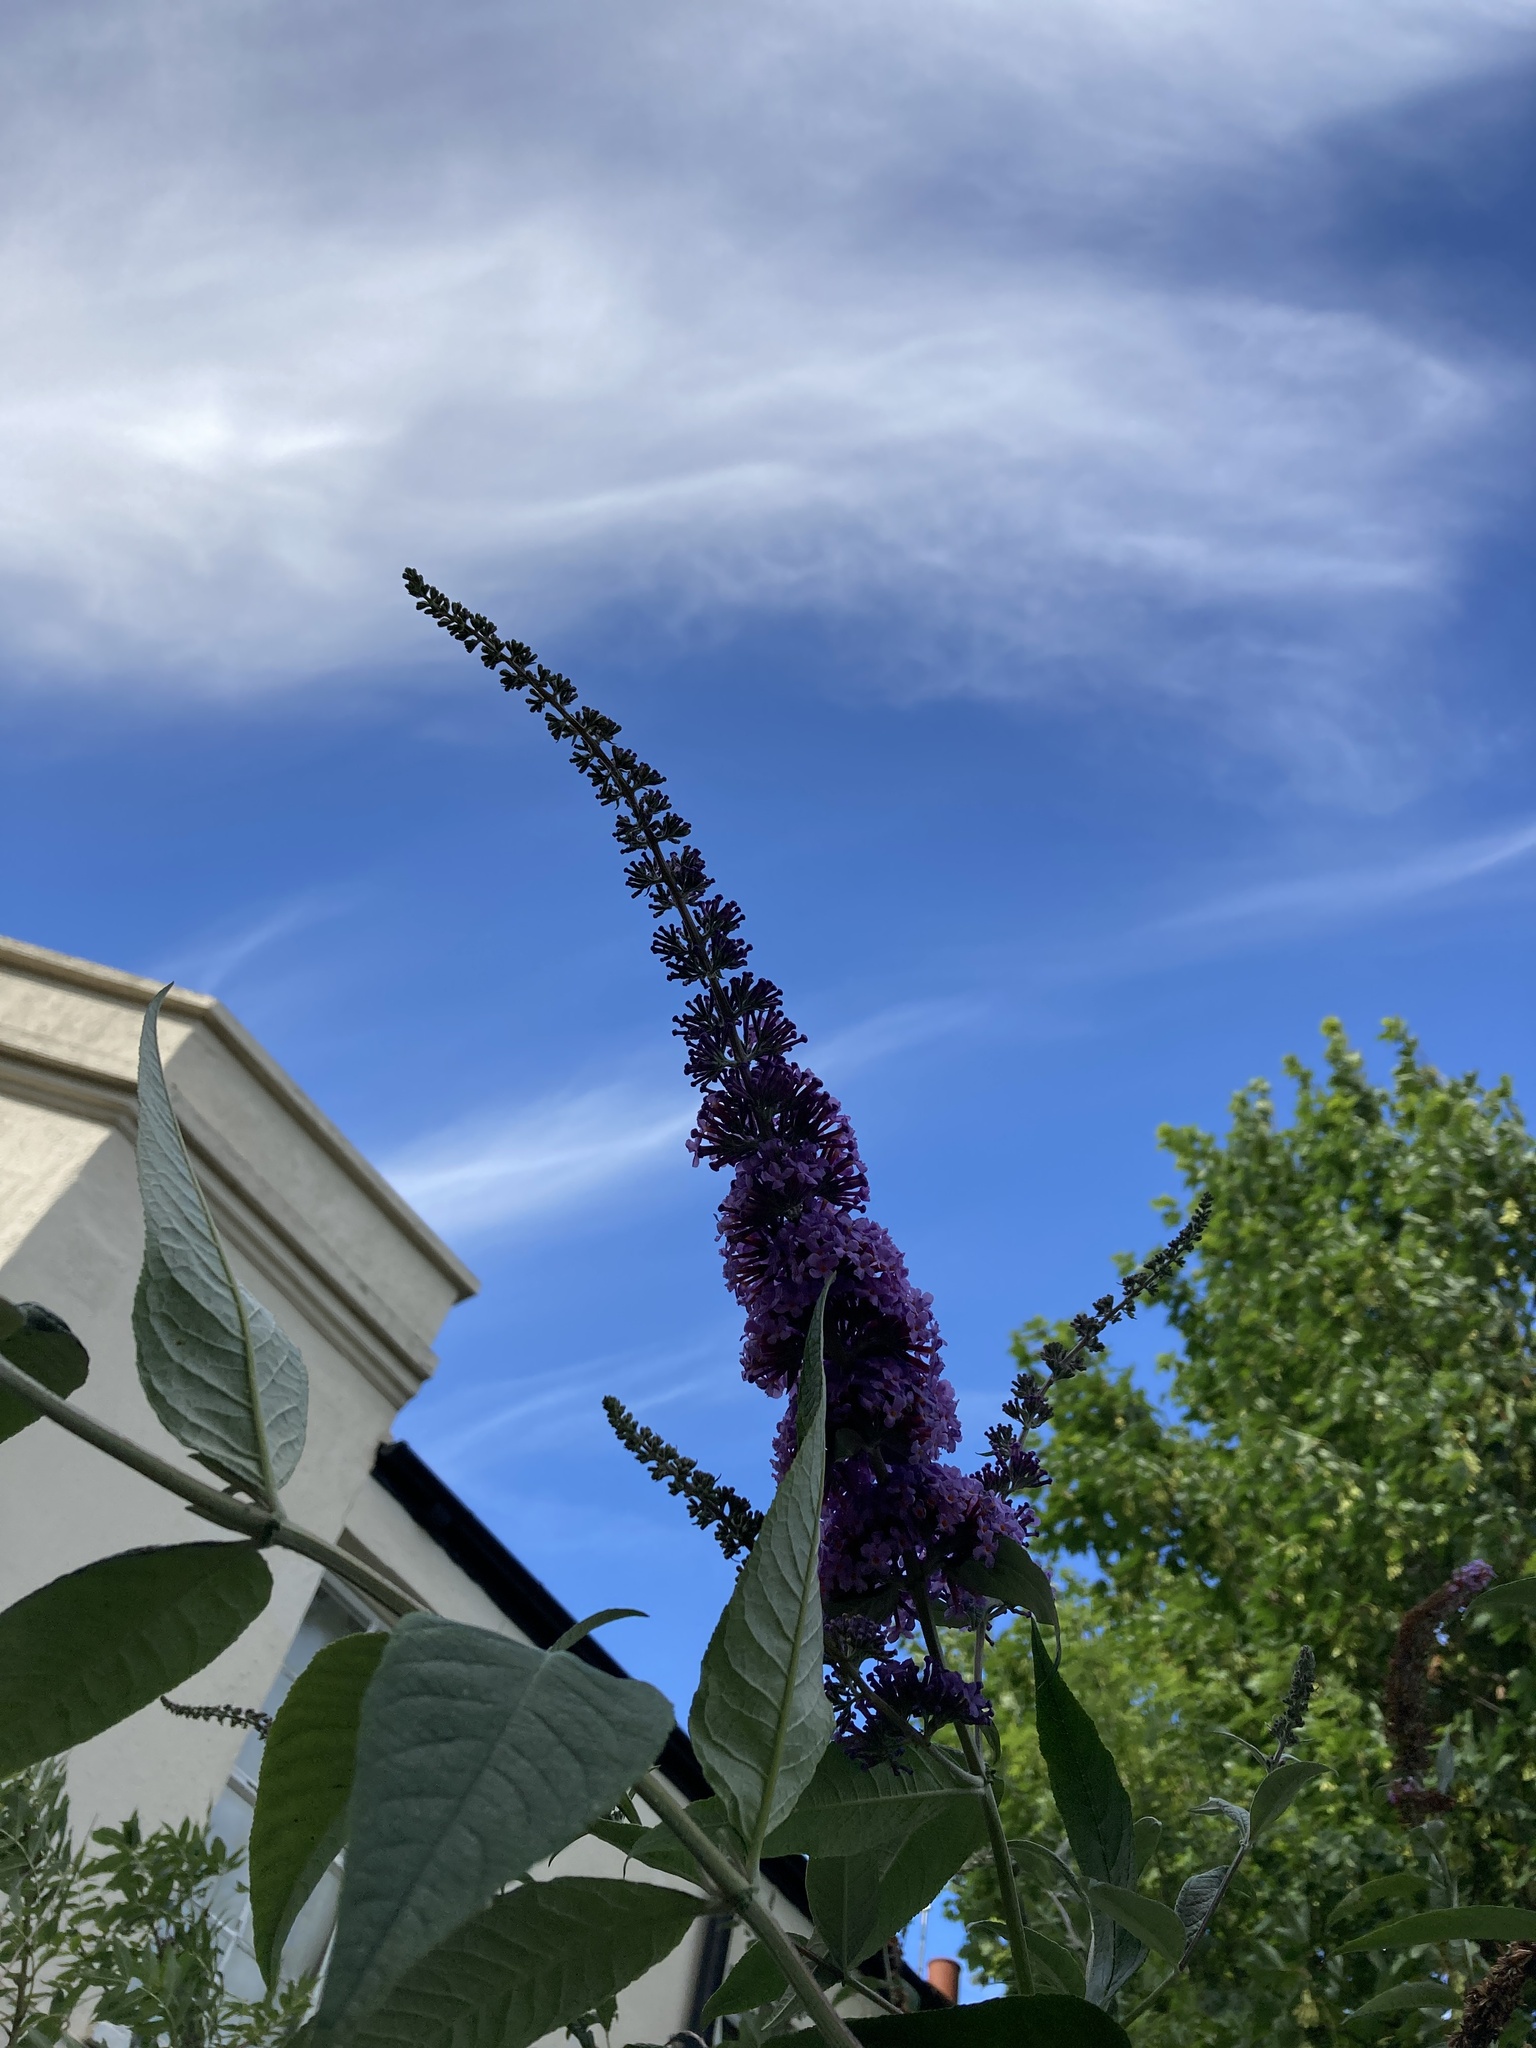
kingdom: Plantae
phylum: Tracheophyta
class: Magnoliopsida
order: Lamiales
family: Scrophulariaceae
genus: Buddleja
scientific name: Buddleja davidii
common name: Butterfly-bush
